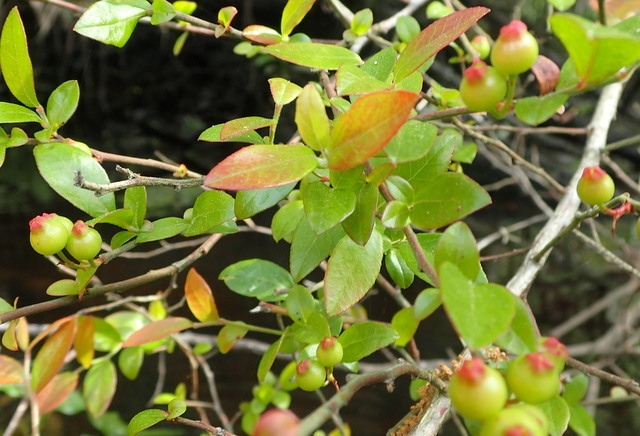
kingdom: Plantae
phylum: Tracheophyta
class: Magnoliopsida
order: Ericales
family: Ericaceae
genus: Vaccinium
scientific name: Vaccinium corymbosum
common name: Blueberry
